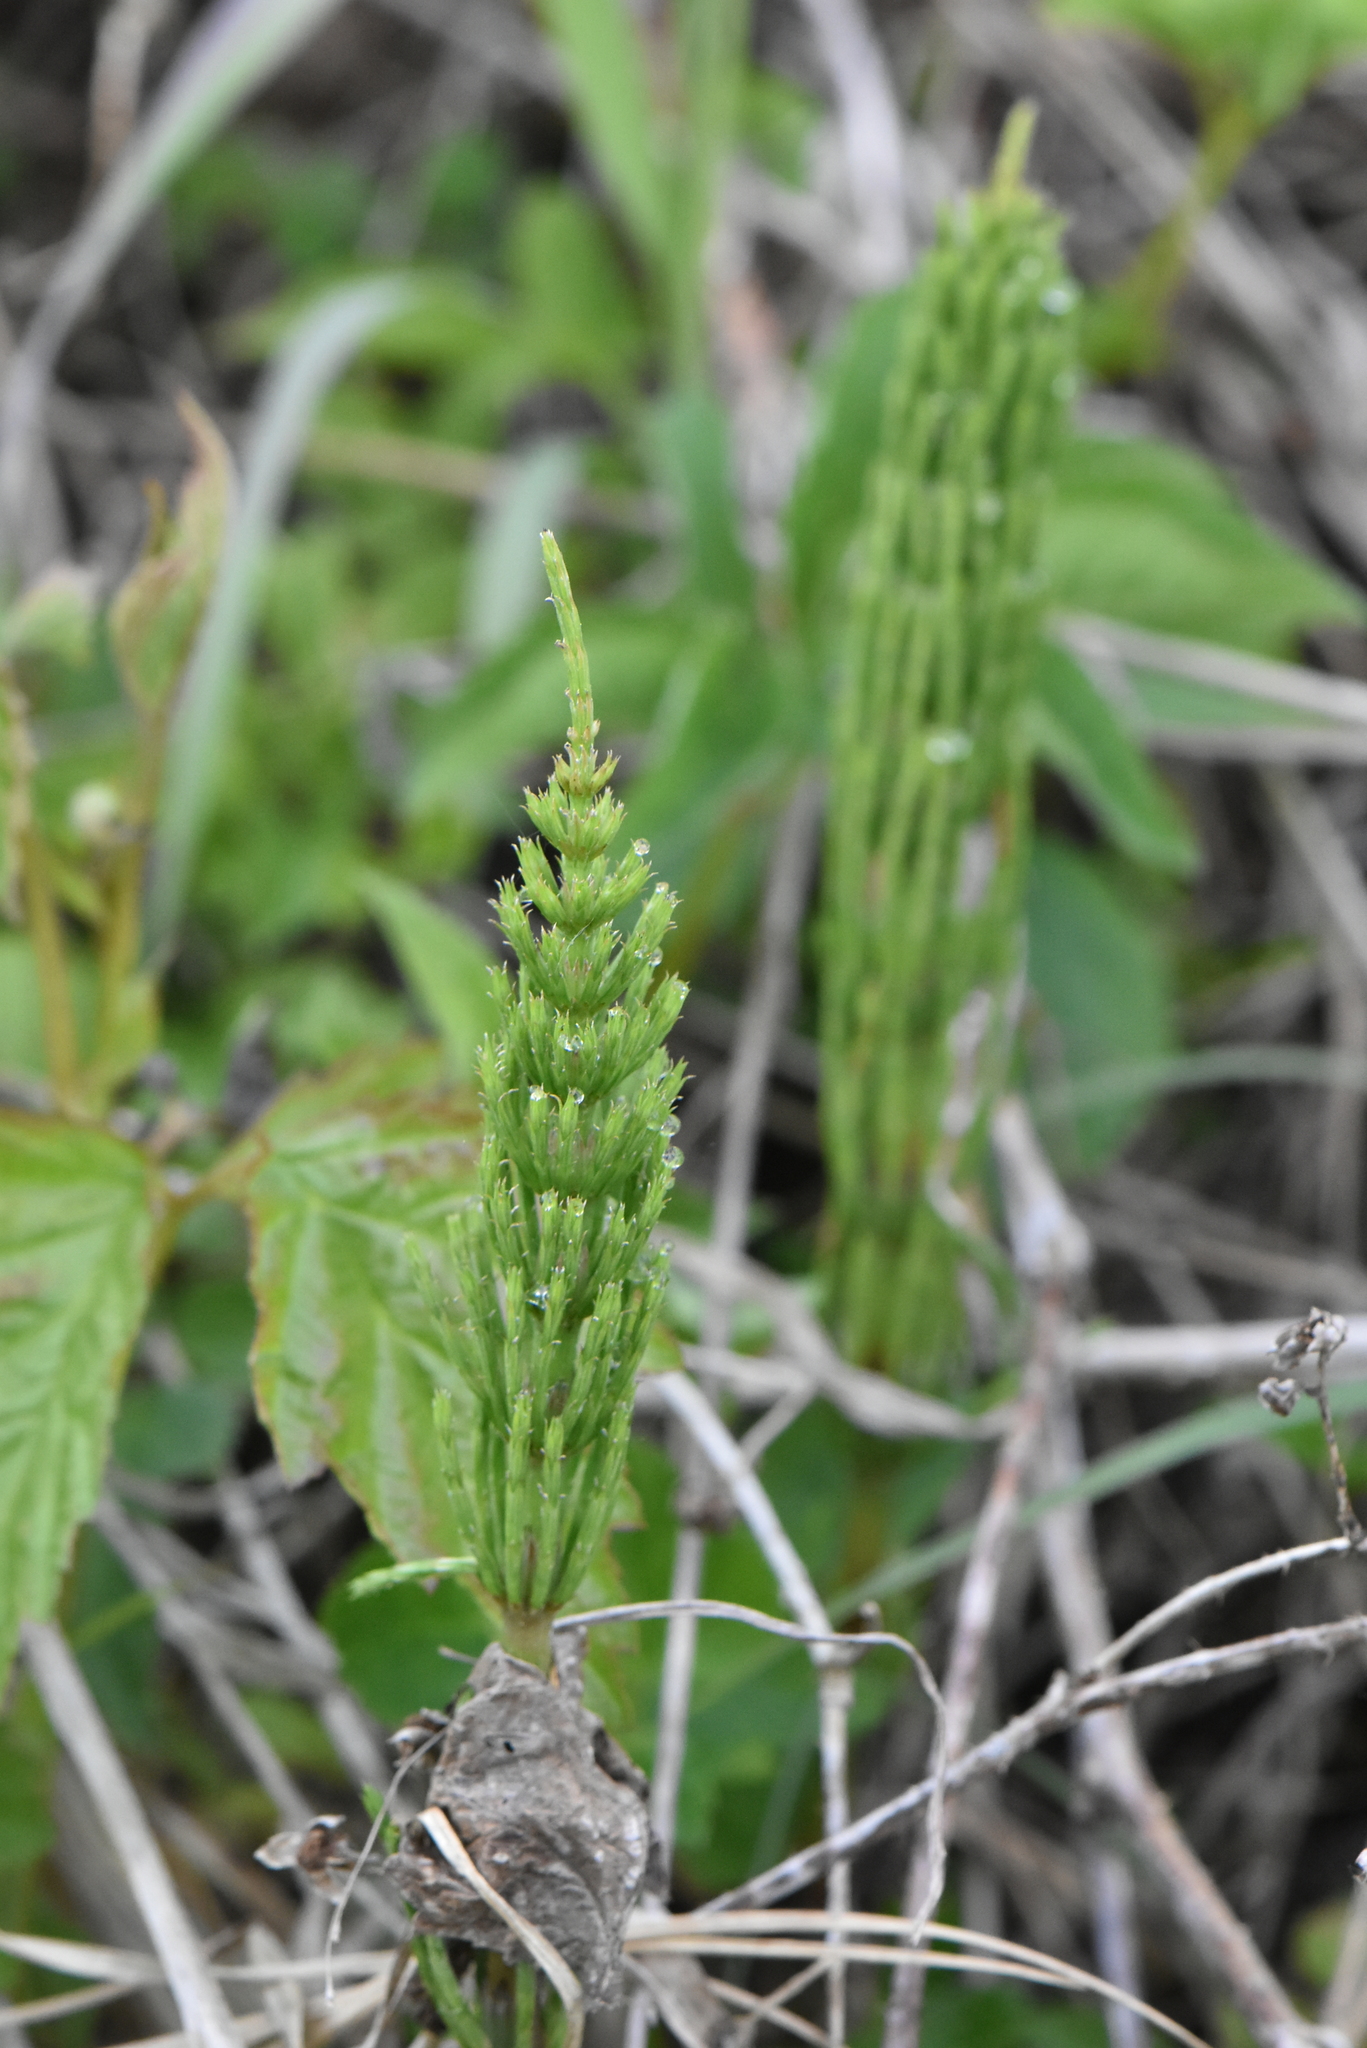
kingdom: Plantae
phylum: Tracheophyta
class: Polypodiopsida
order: Equisetales
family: Equisetaceae
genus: Equisetum
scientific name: Equisetum arvense
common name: Field horsetail
